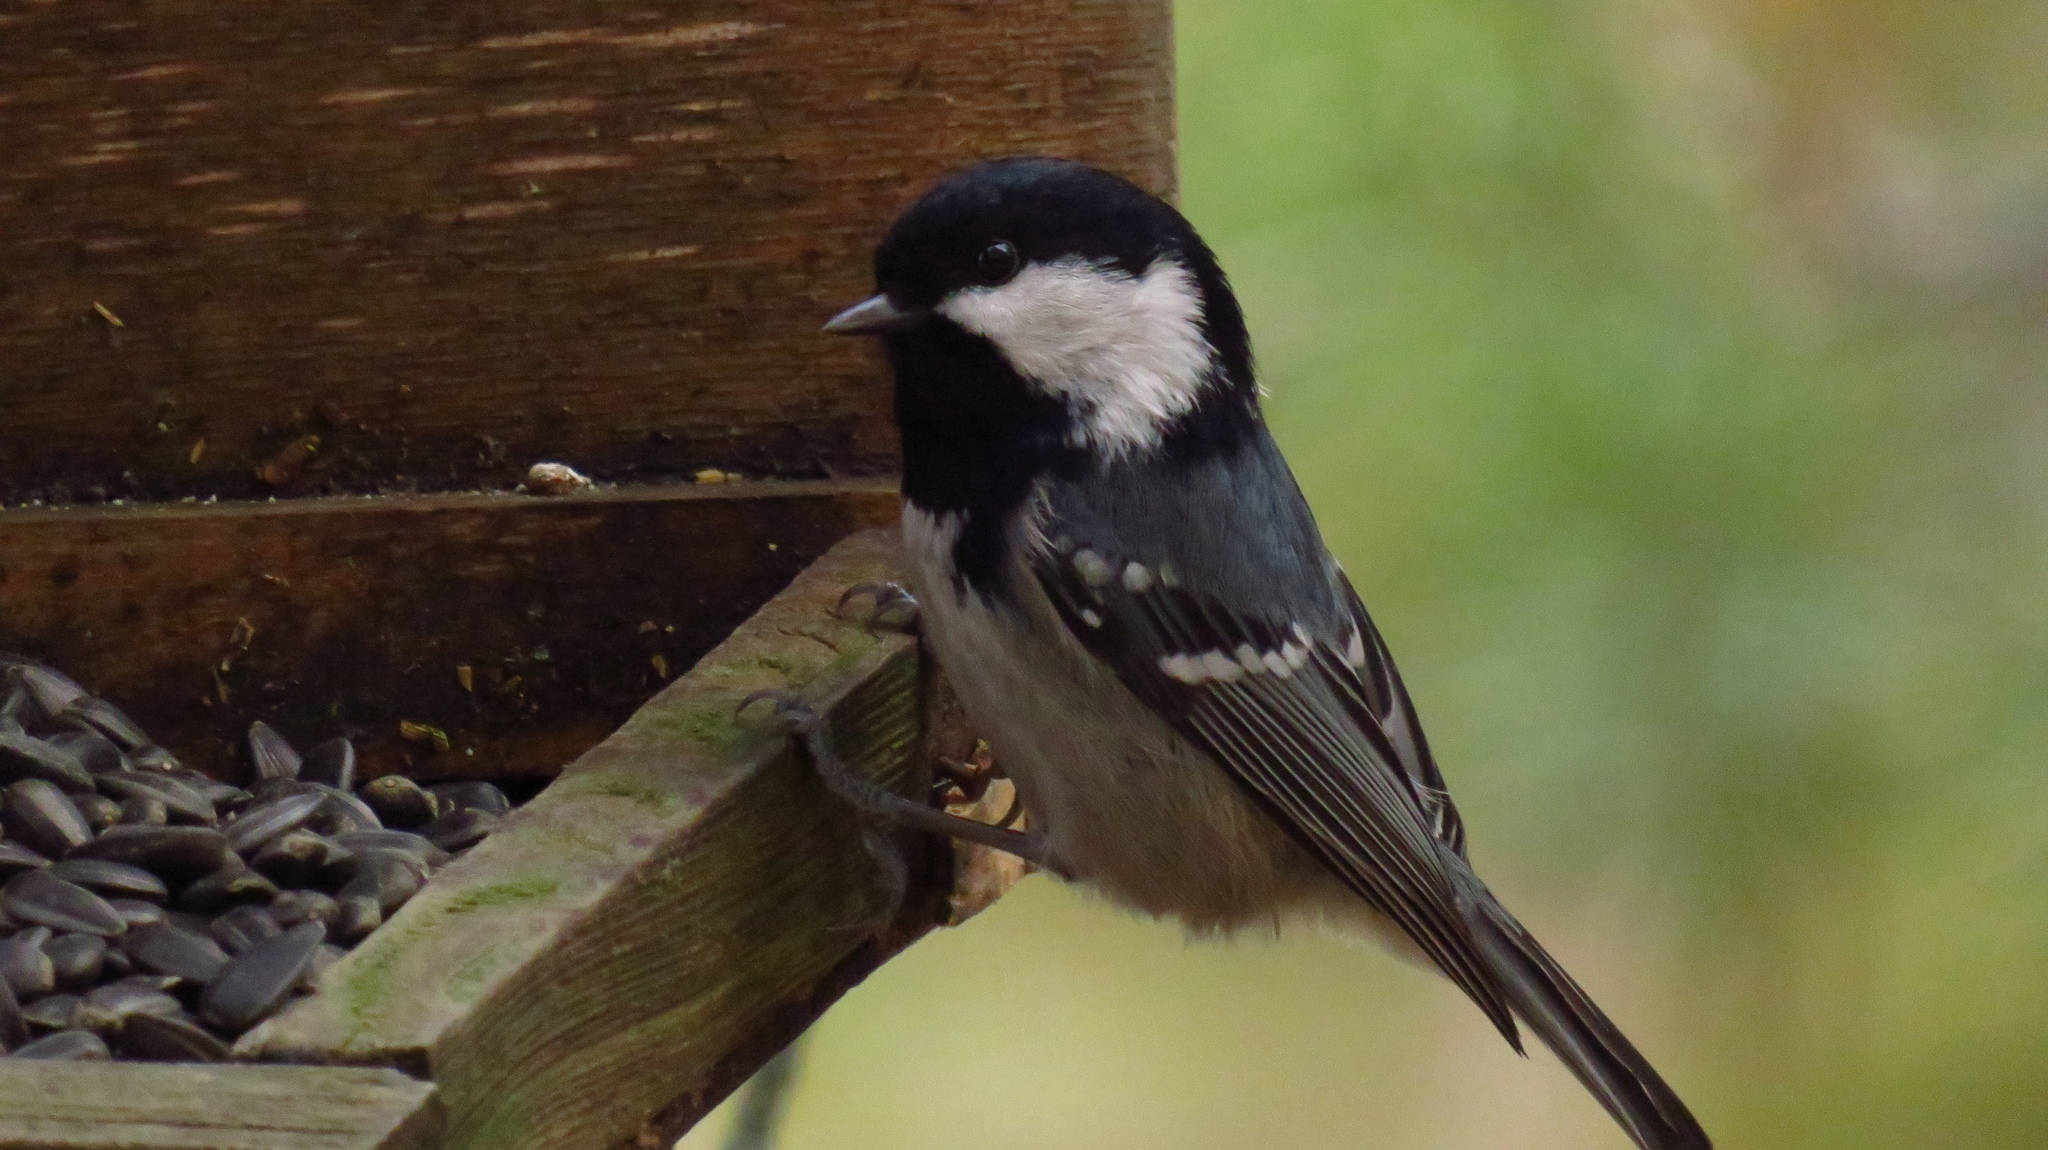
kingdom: Animalia
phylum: Chordata
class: Aves
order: Passeriformes
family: Paridae
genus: Periparus
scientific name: Periparus ater
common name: Coal tit
